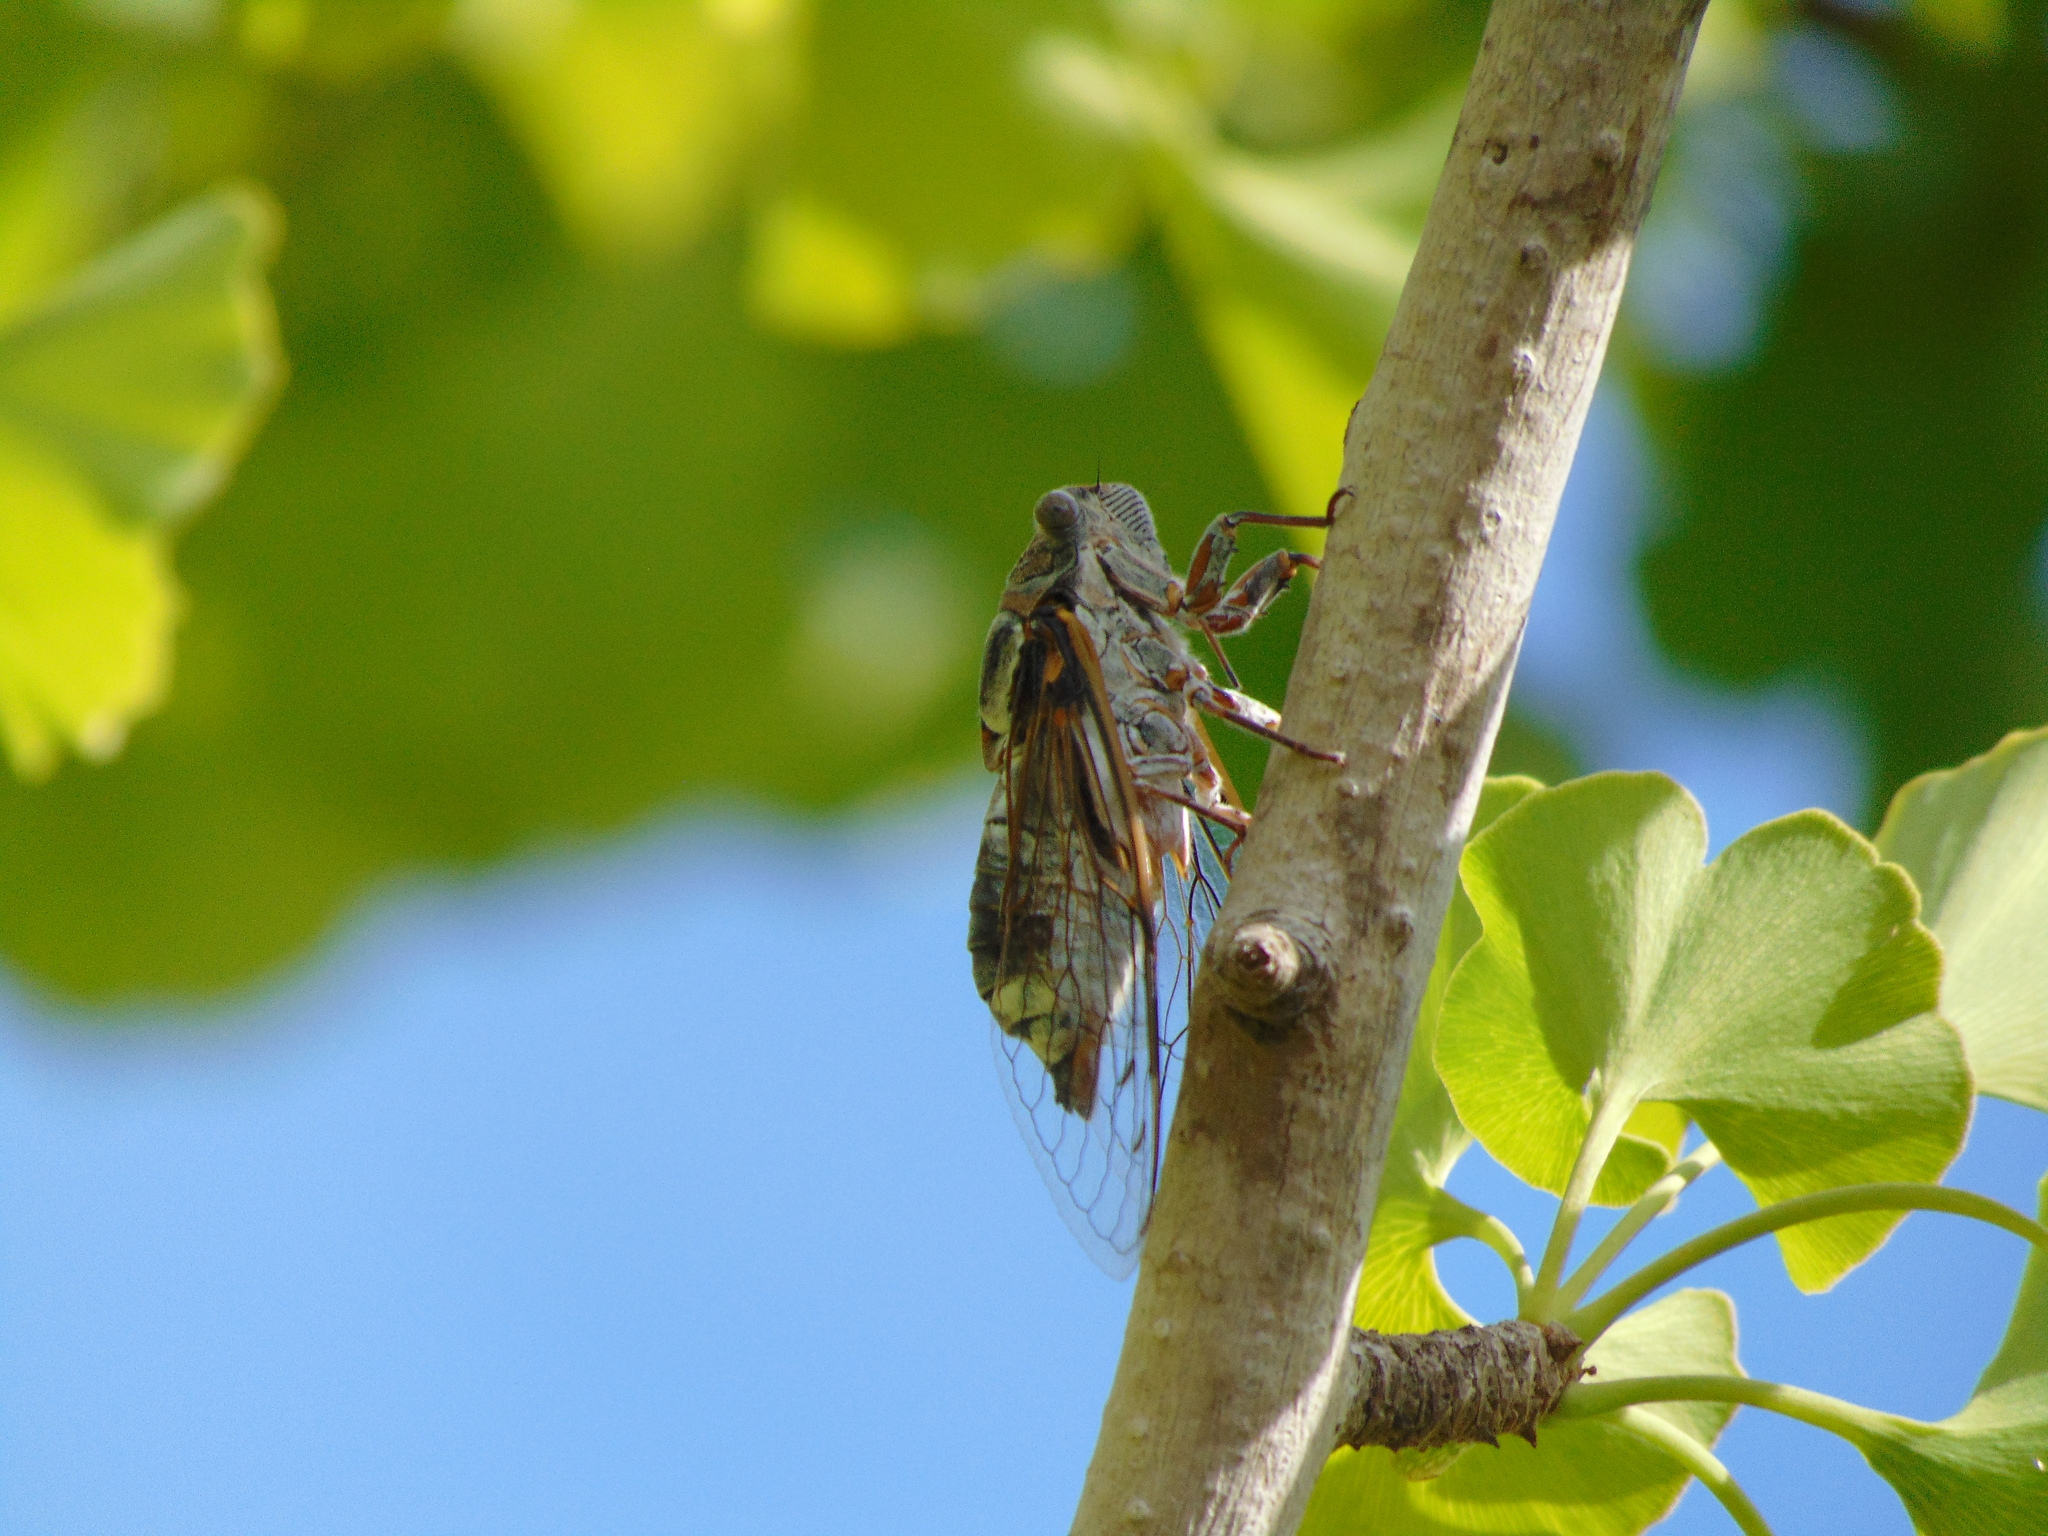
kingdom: Animalia
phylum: Arthropoda
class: Insecta
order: Hemiptera
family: Cicadidae
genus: Lyristes
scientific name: Lyristes plebejus
